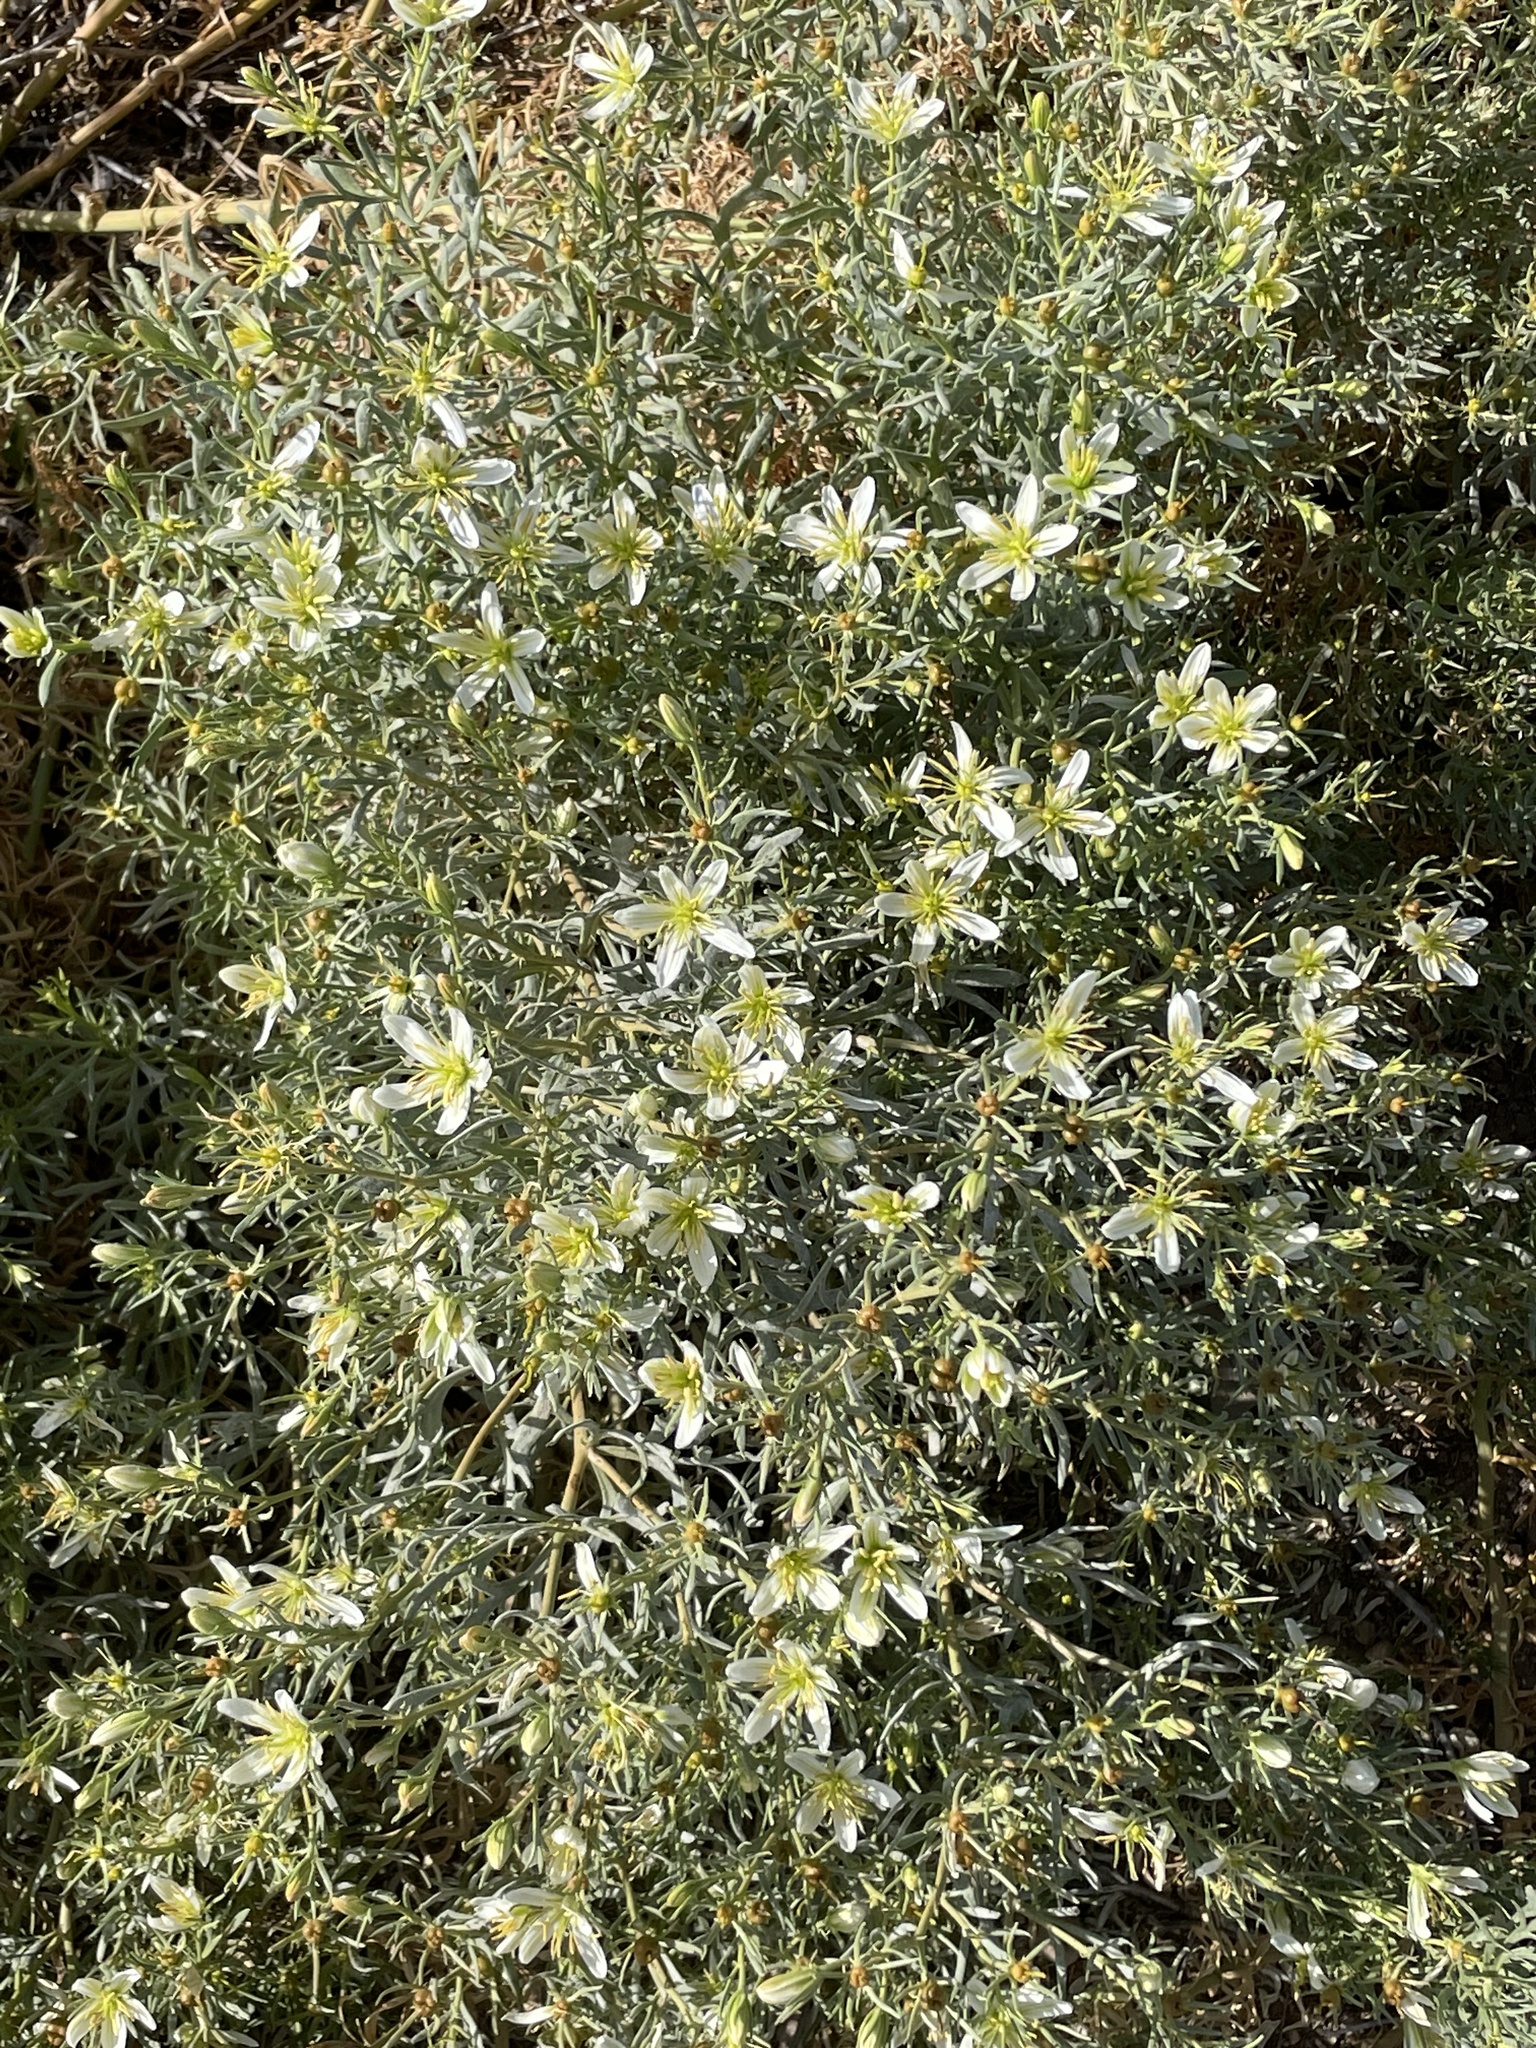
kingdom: Plantae
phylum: Tracheophyta
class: Magnoliopsida
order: Sapindales
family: Tetradiclidaceae
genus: Peganum
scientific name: Peganum harmala
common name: Harmal peganum
